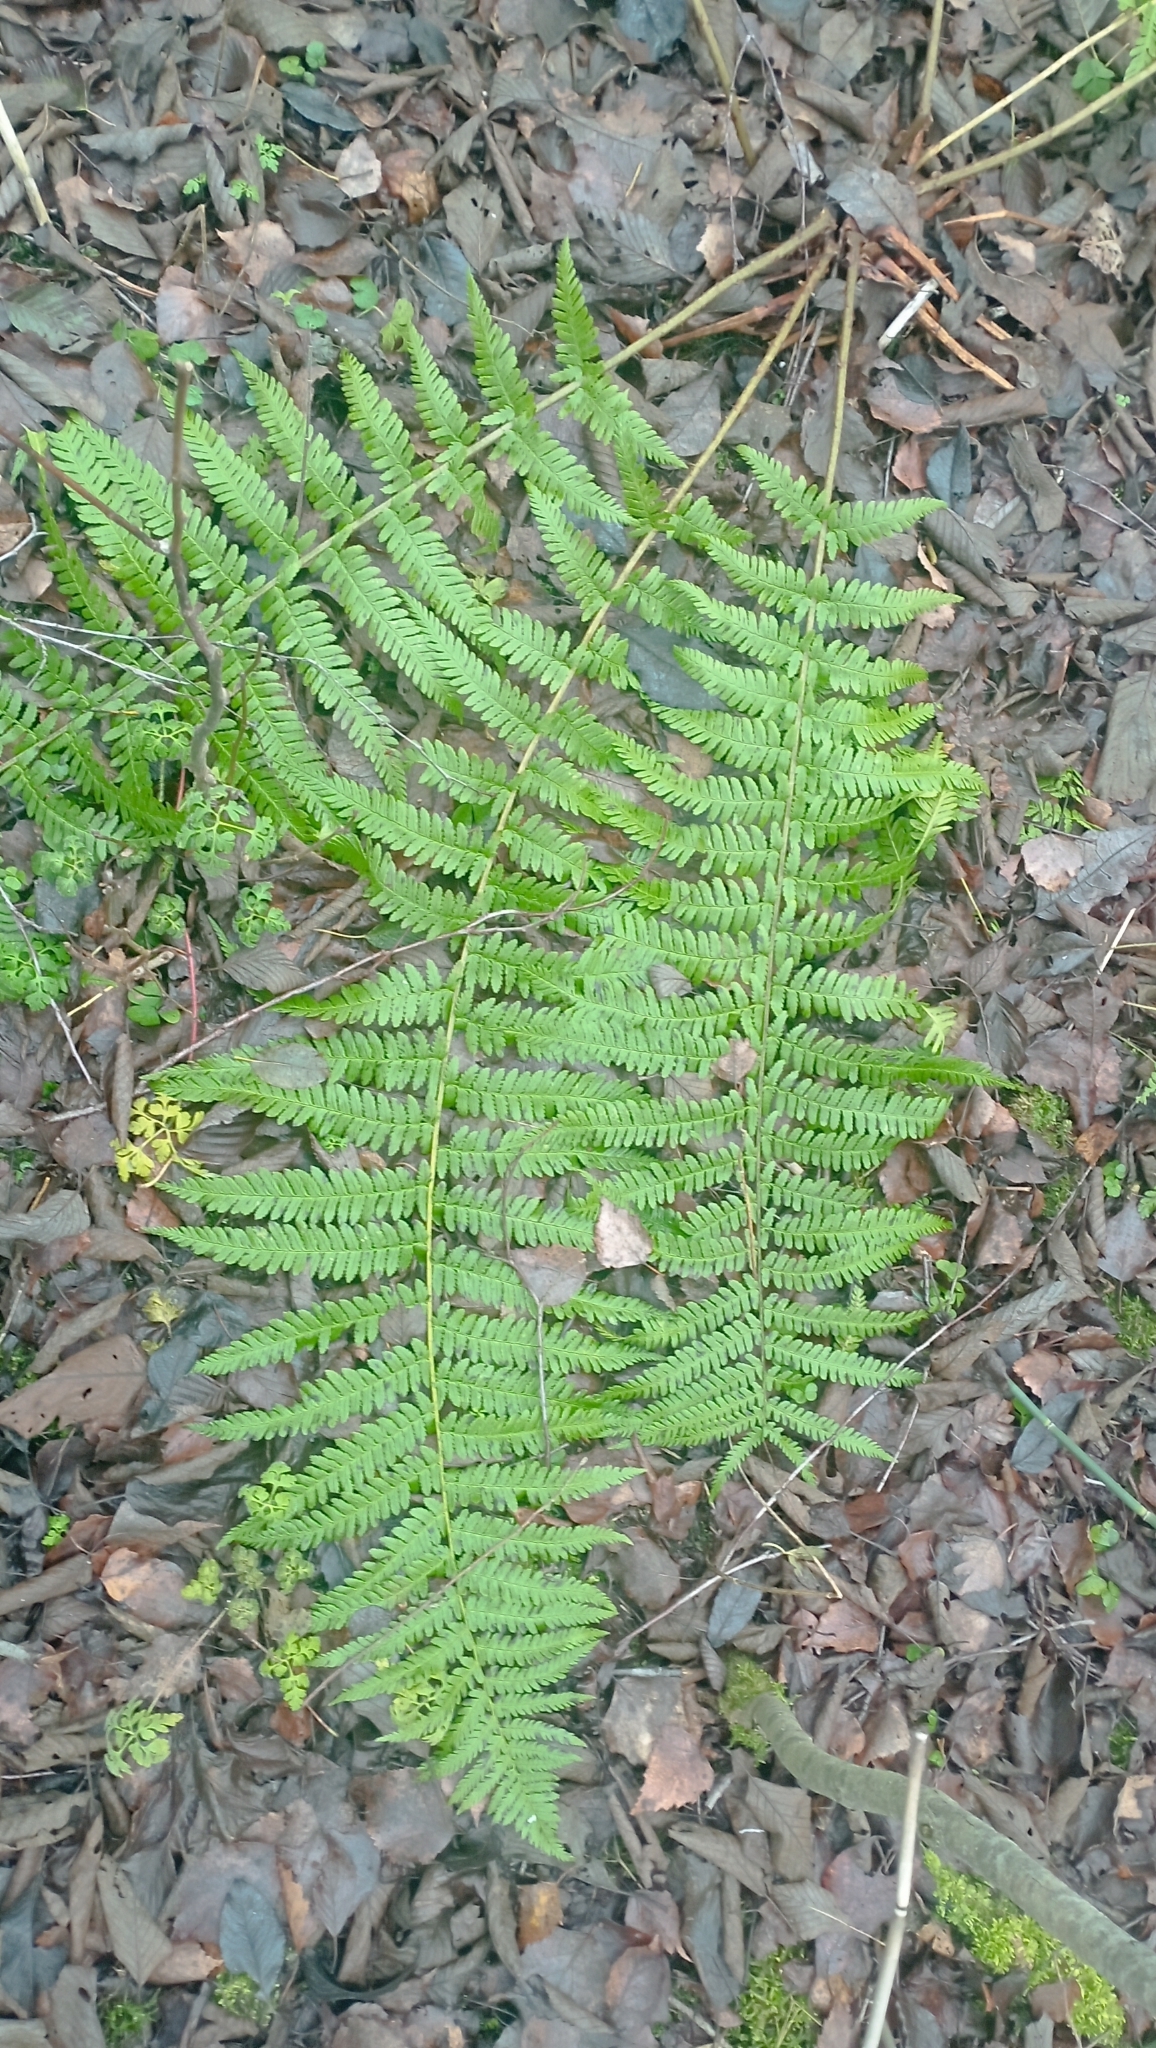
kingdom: Plantae
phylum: Tracheophyta
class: Polypodiopsida
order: Polypodiales
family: Dryopteridaceae
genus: Dryopteris
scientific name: Dryopteris filix-mas
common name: Male fern
